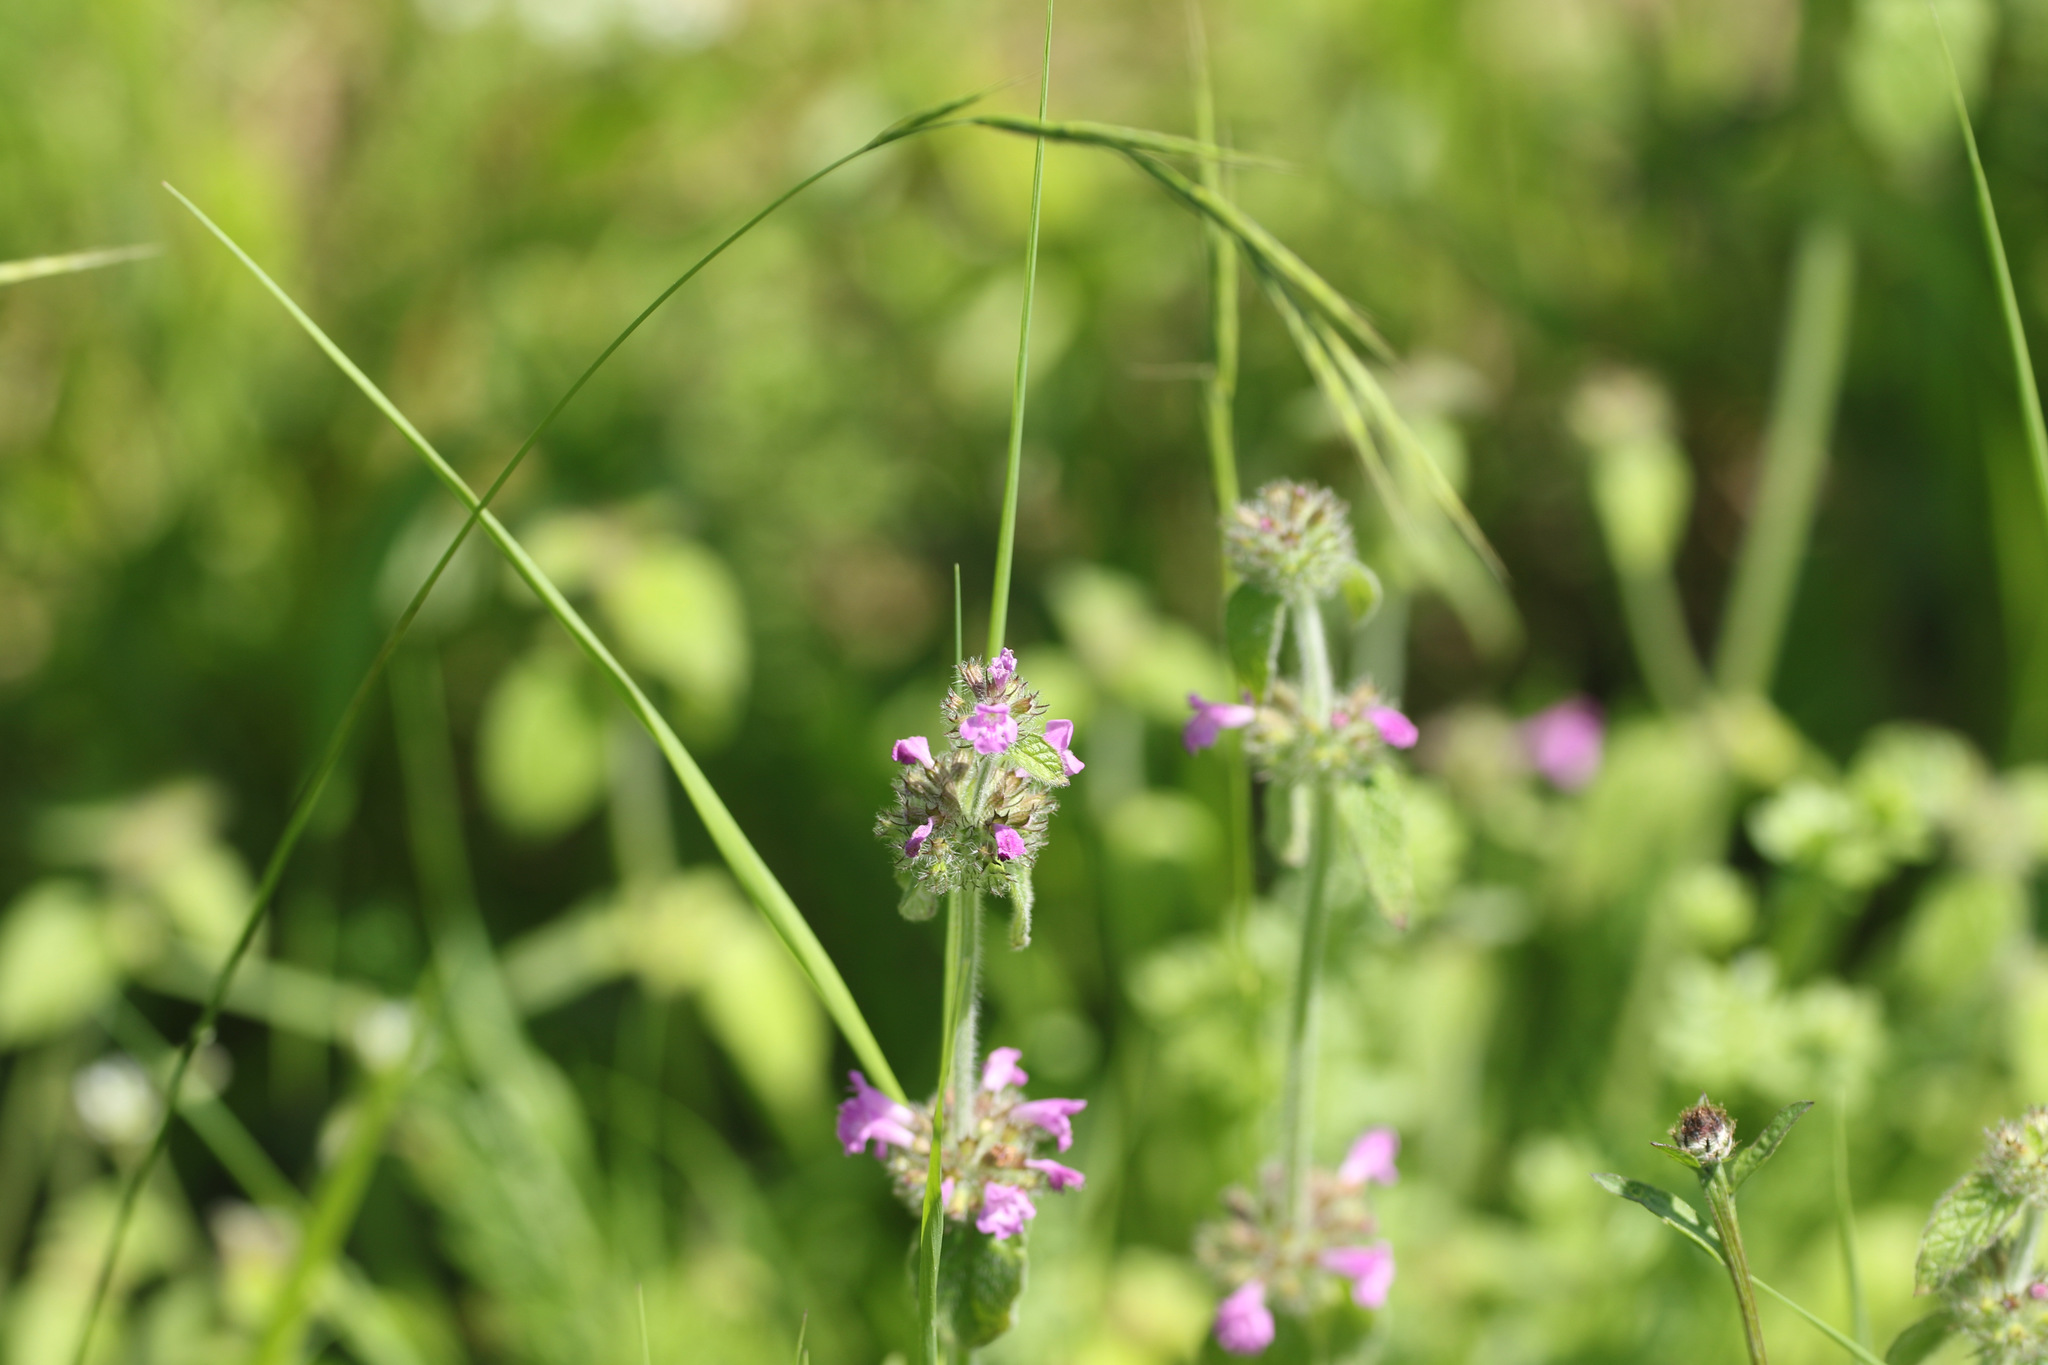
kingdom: Plantae
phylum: Tracheophyta
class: Magnoliopsida
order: Lamiales
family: Lamiaceae
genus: Clinopodium
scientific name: Clinopodium vulgare
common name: Wild basil
